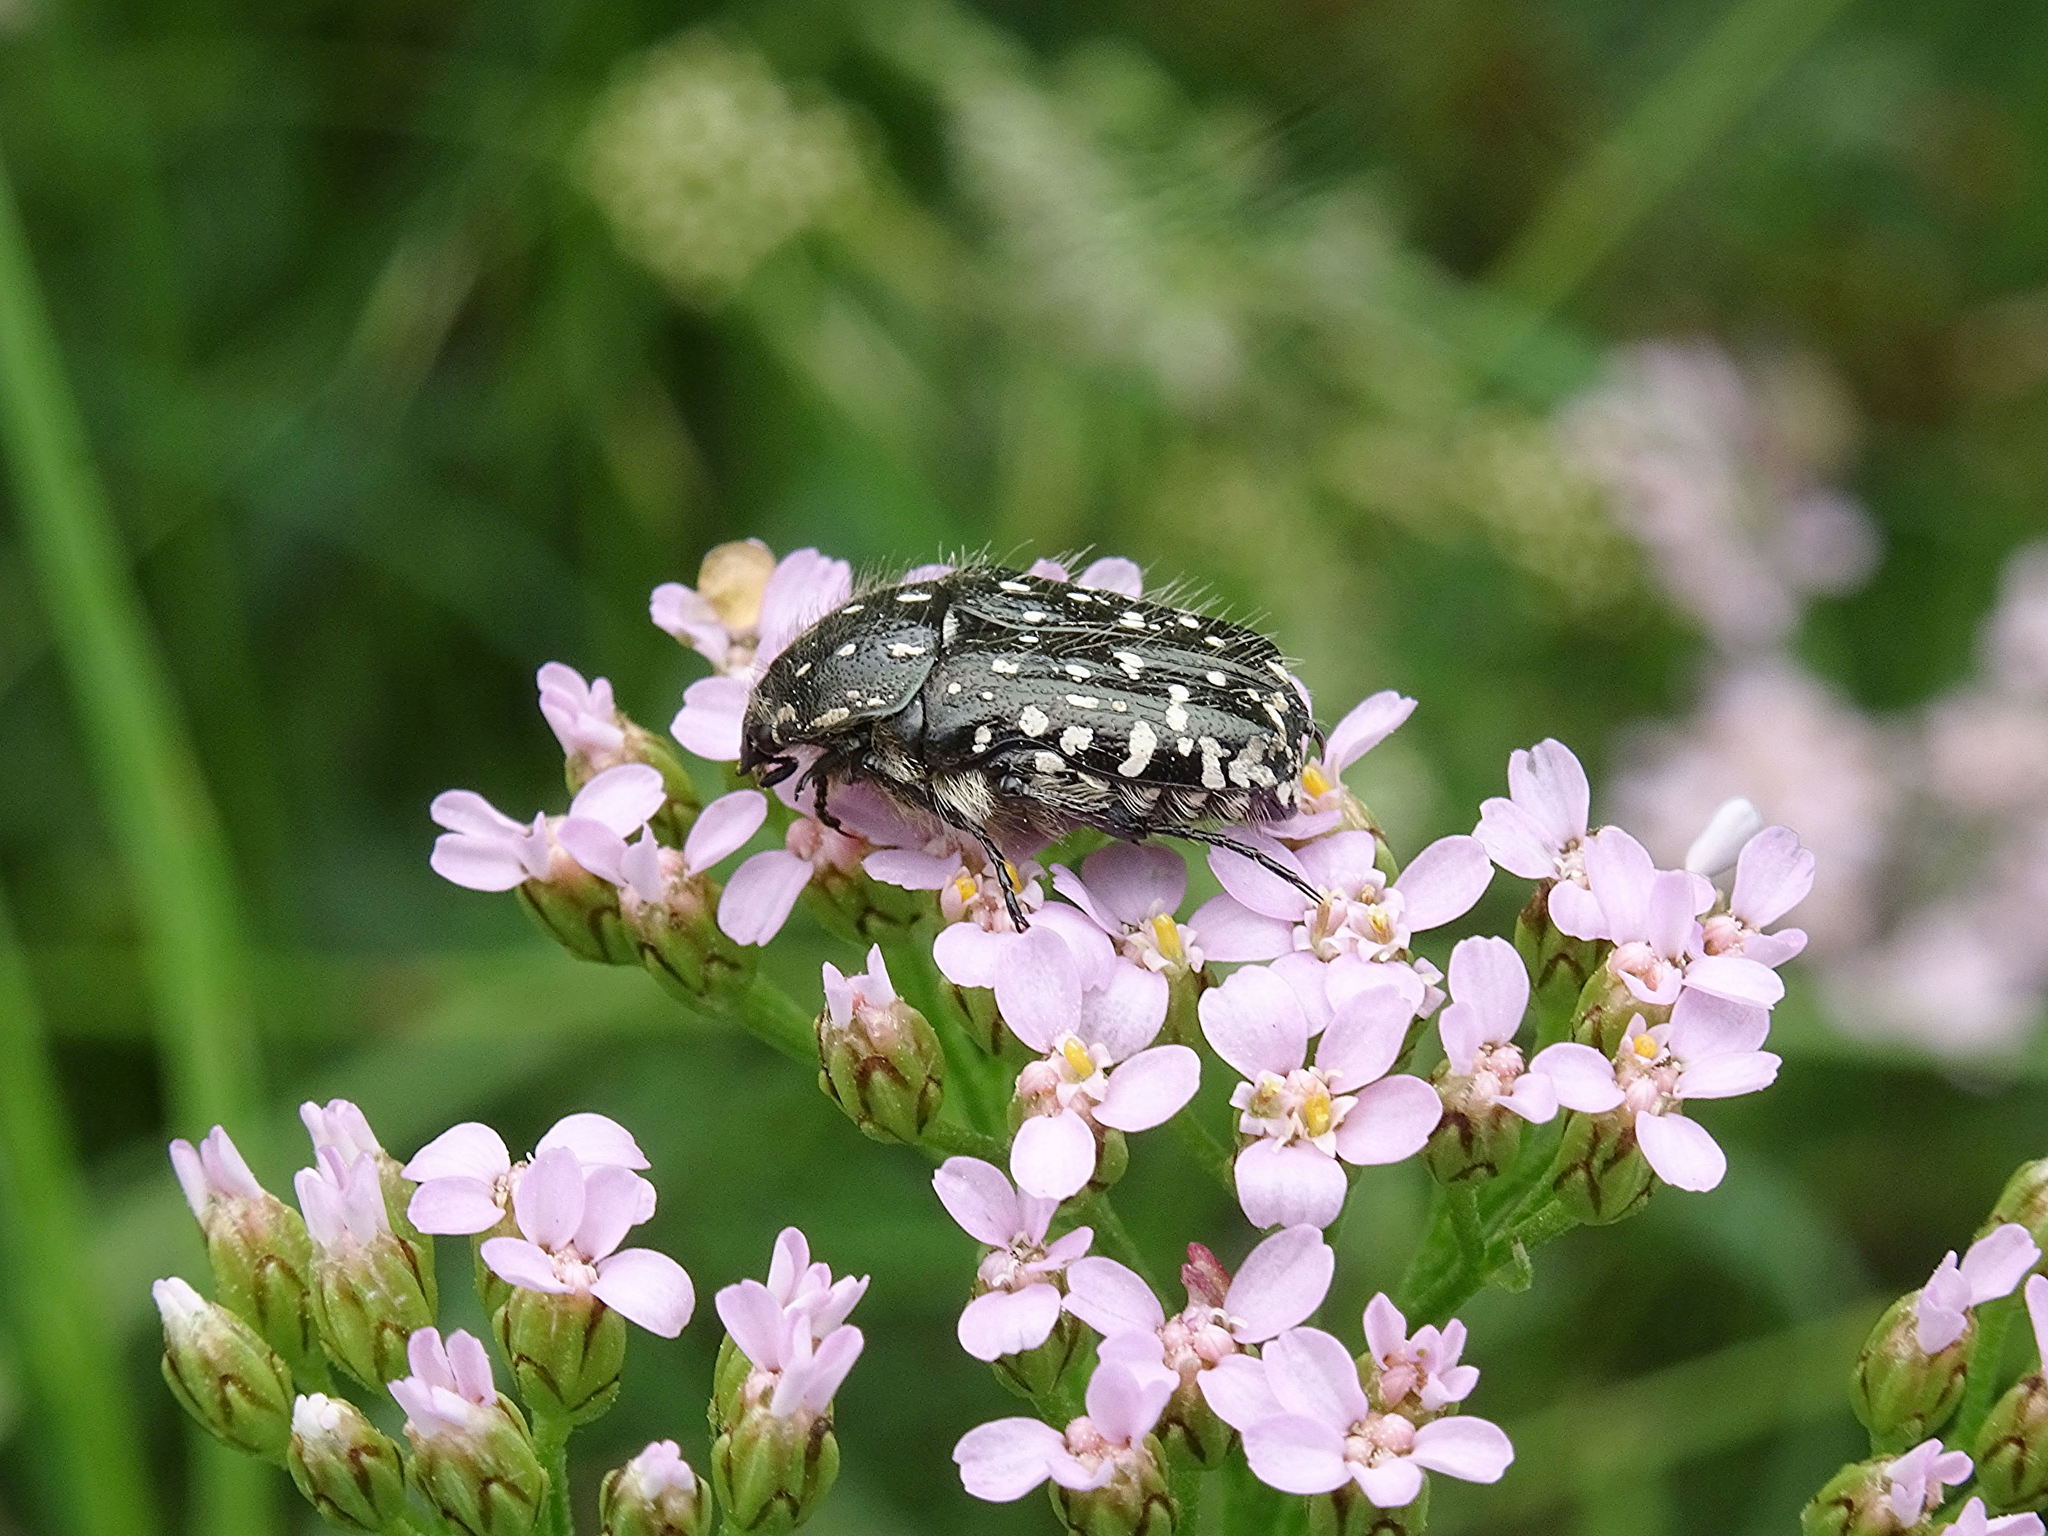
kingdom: Animalia
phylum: Arthropoda
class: Insecta
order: Coleoptera
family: Scarabaeidae
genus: Oxythyrea
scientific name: Oxythyrea funesta
